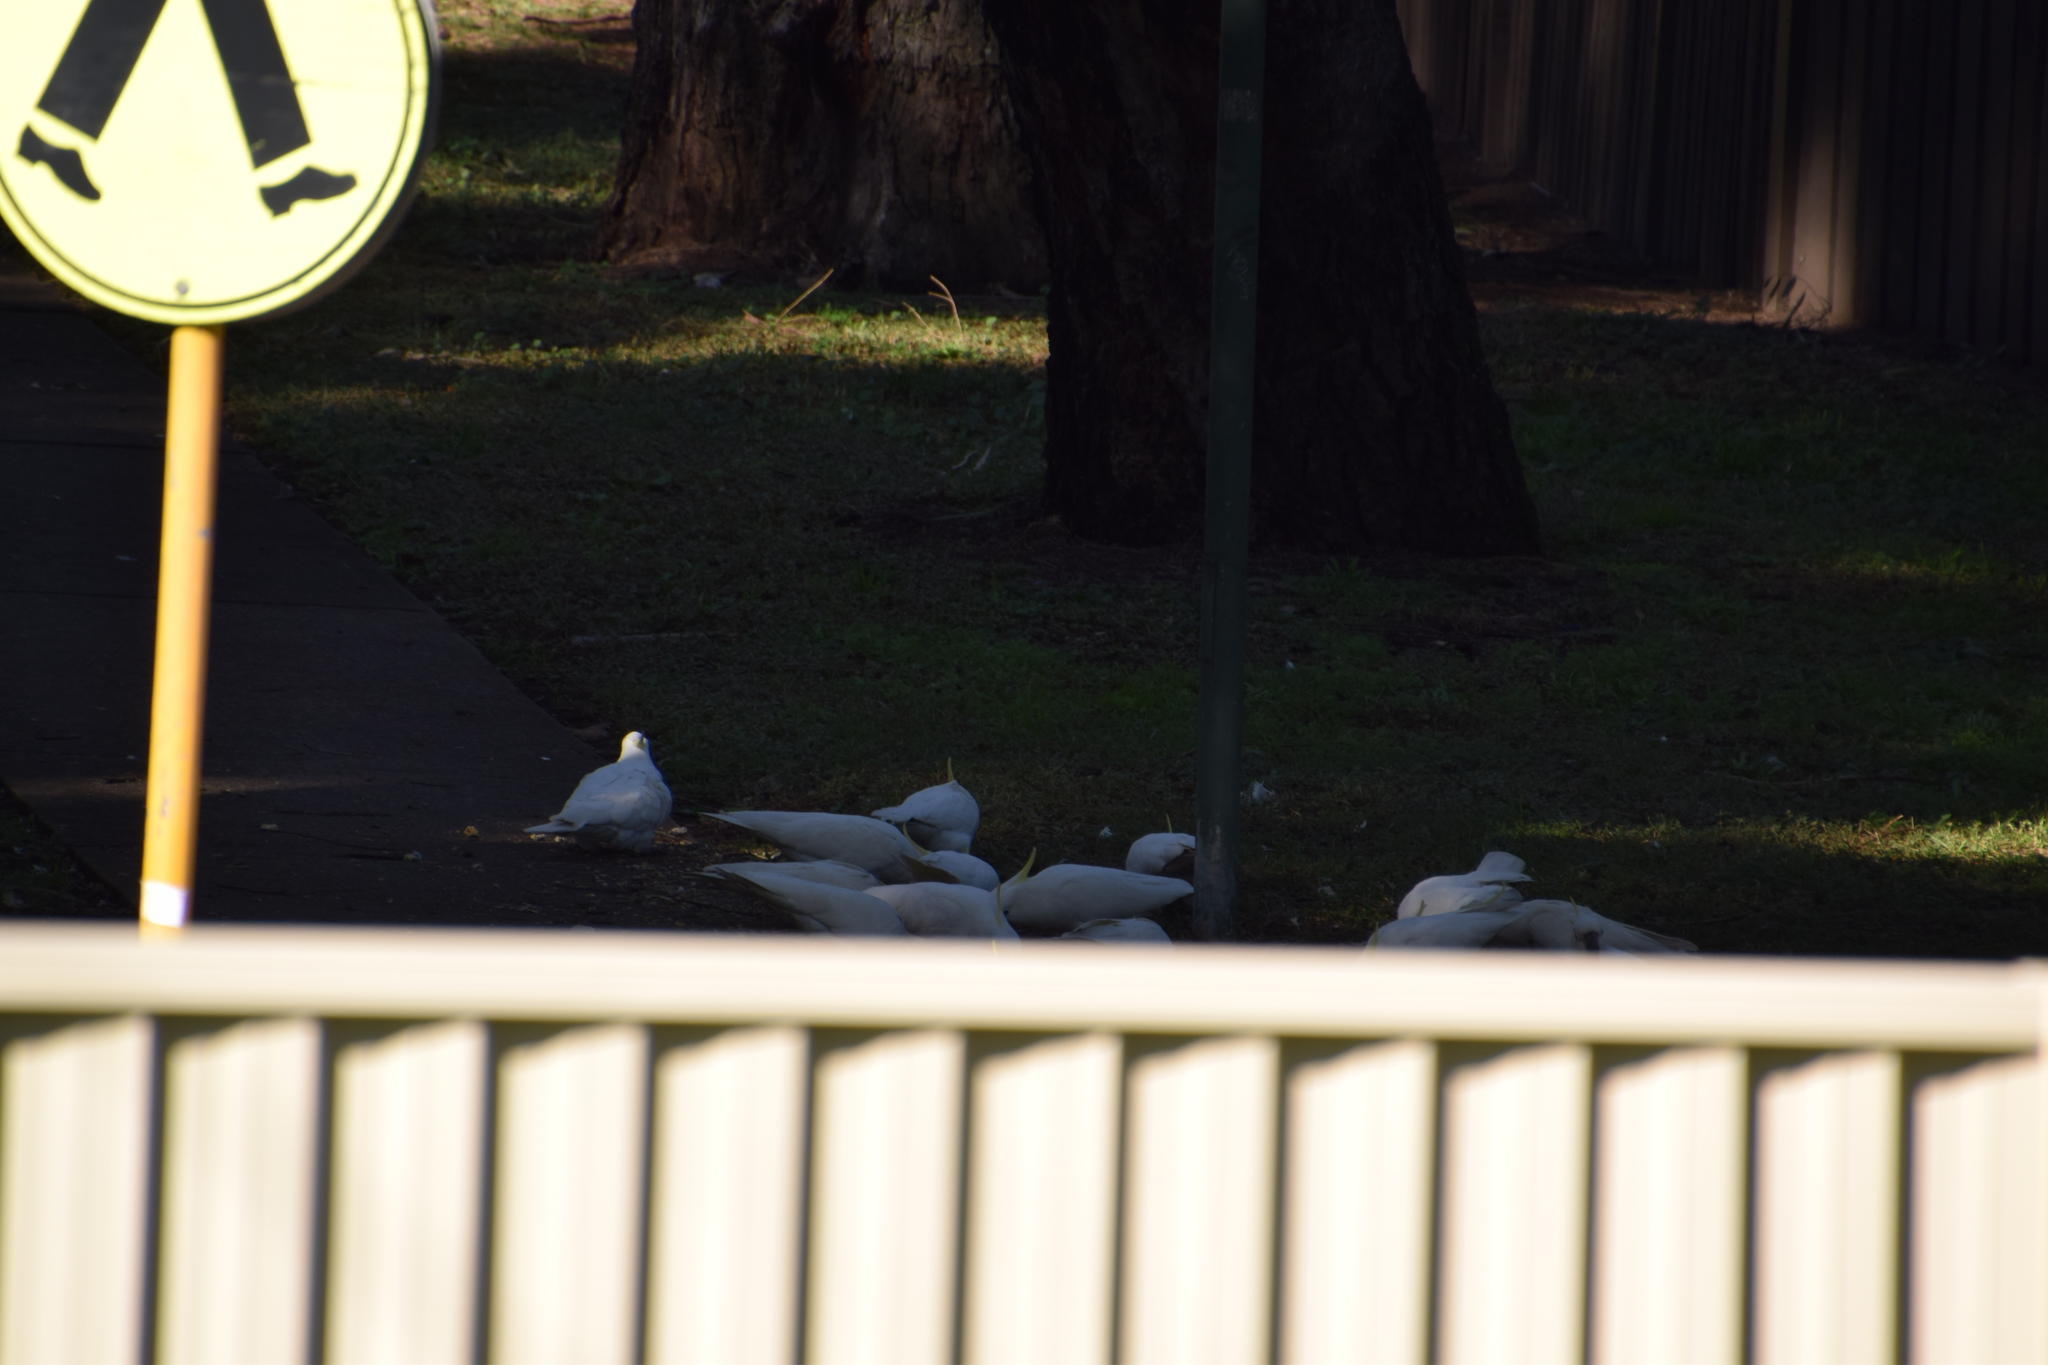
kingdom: Animalia
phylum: Chordata
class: Aves
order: Psittaciformes
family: Psittacidae
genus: Cacatua
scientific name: Cacatua galerita
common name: Sulphur-crested cockatoo
